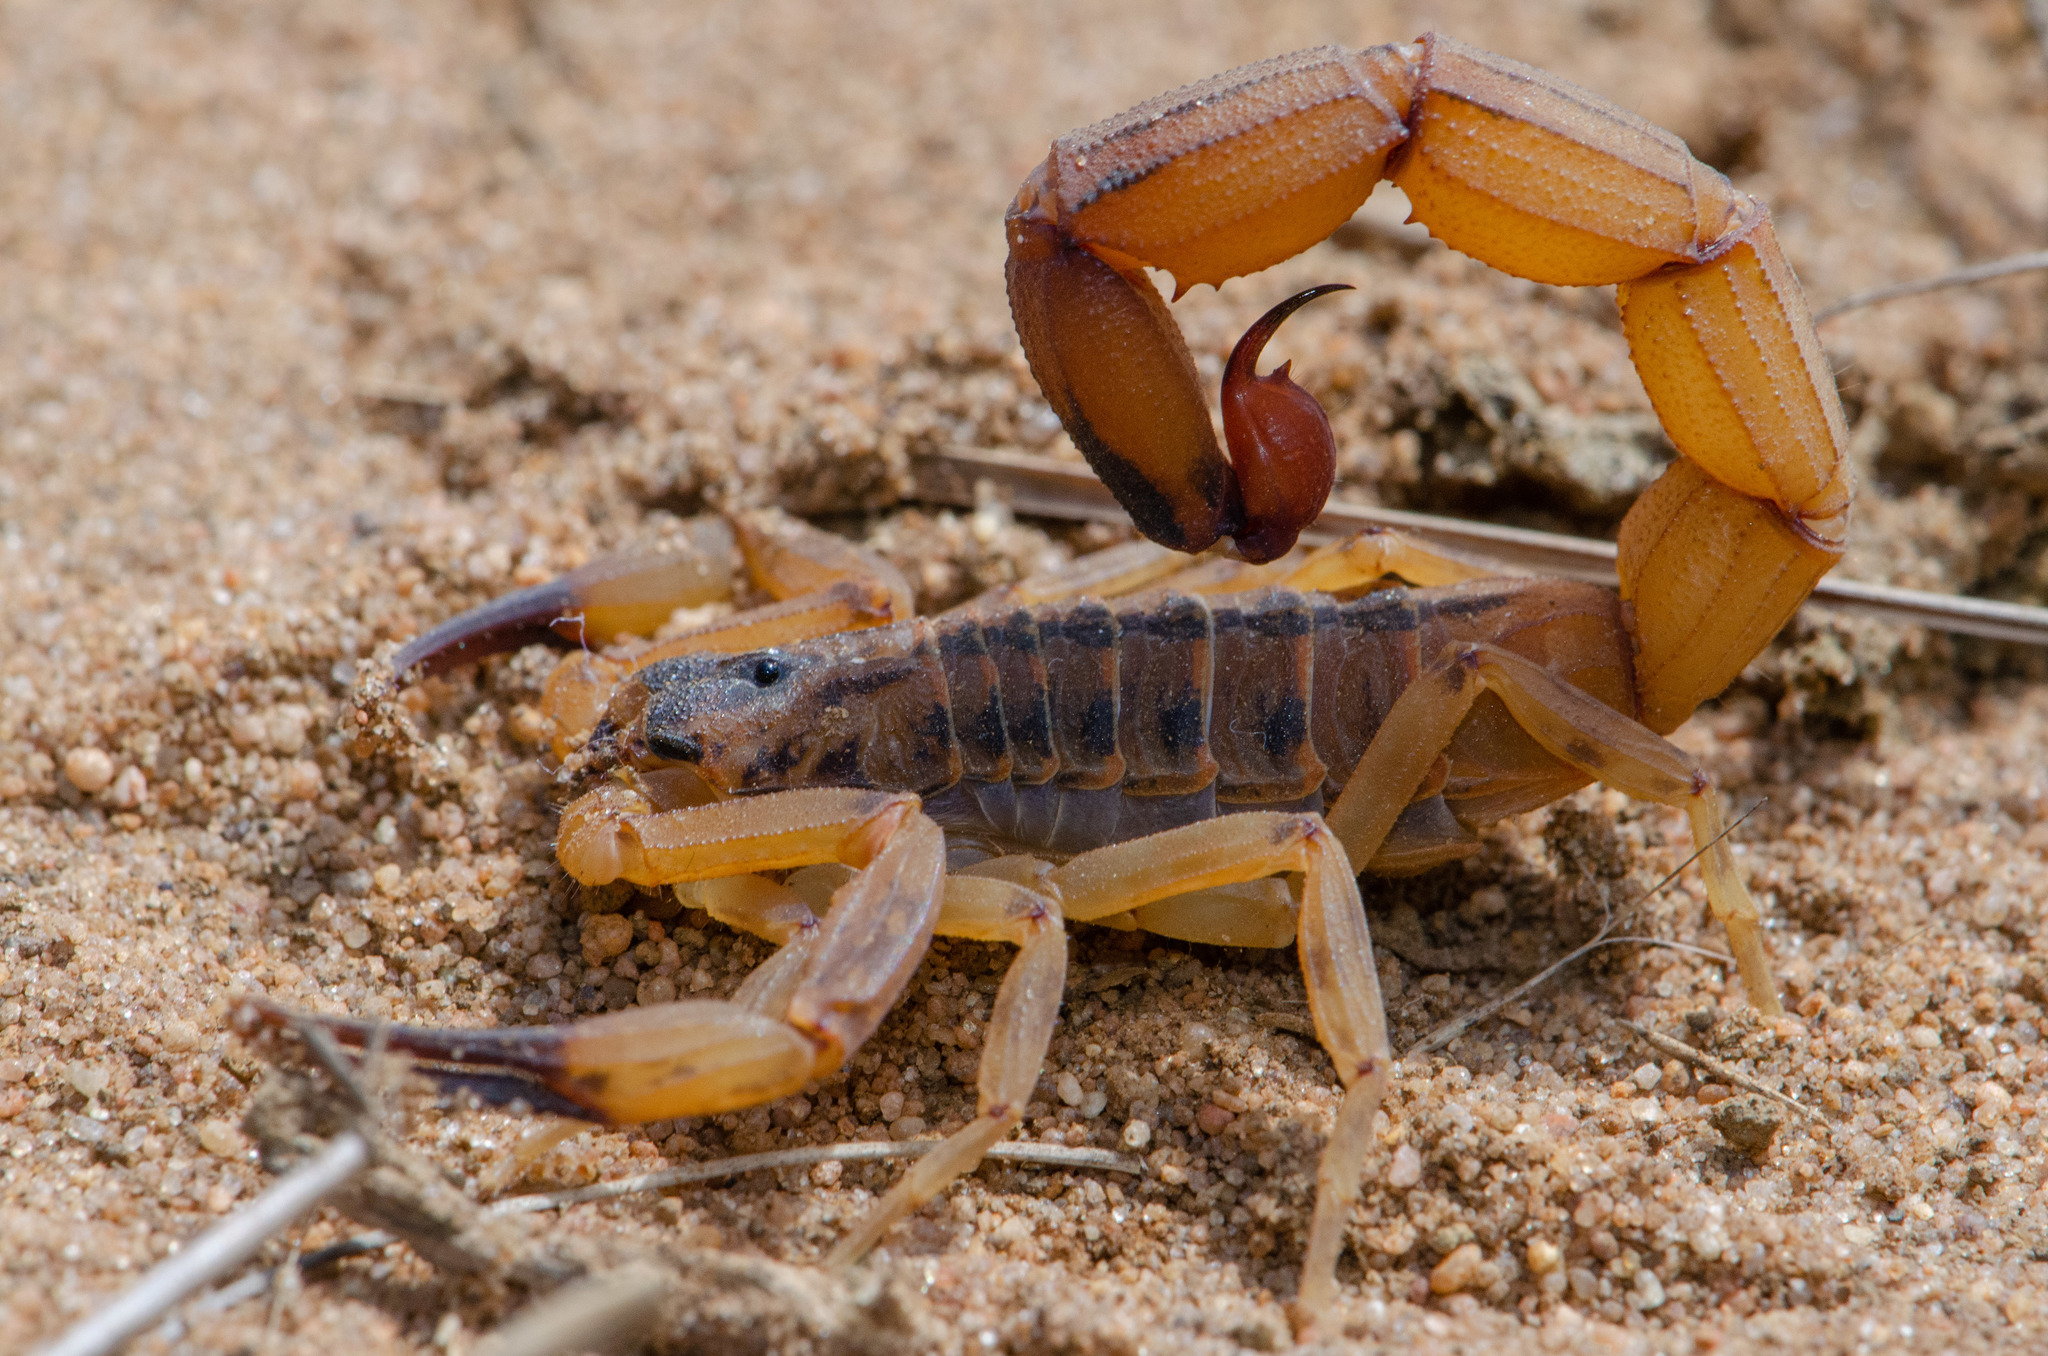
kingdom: Animalia
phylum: Arthropoda
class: Arachnida
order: Scorpiones
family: Buthidae
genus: Tityus
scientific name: Tityus aba
